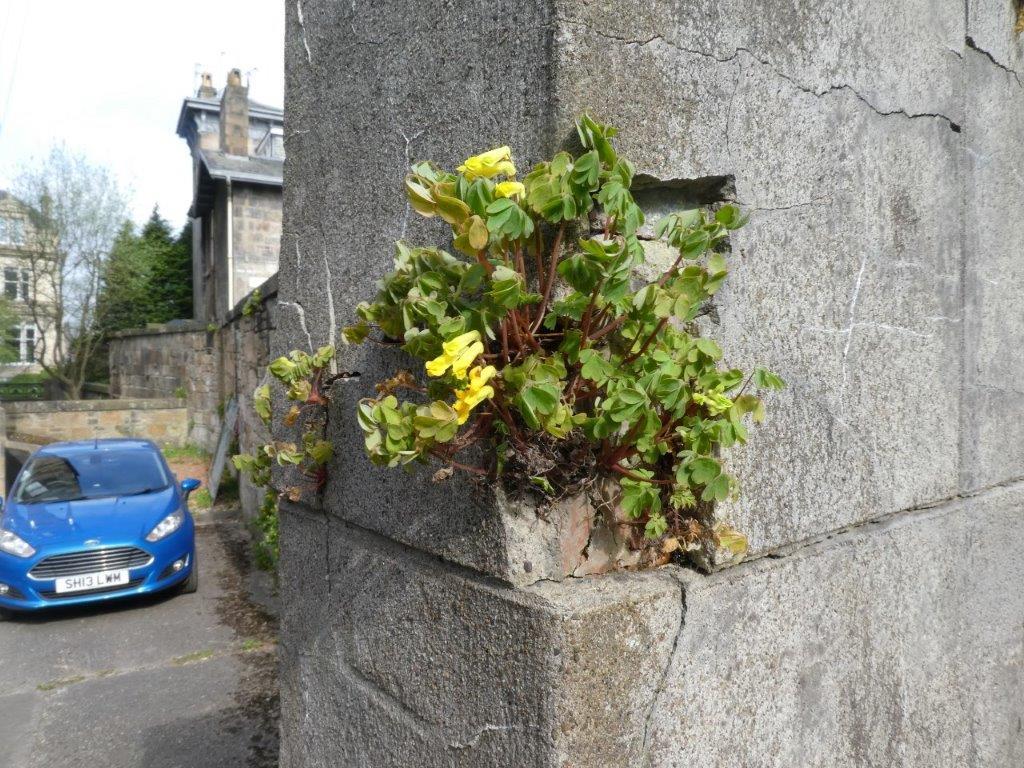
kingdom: Plantae
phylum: Tracheophyta
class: Magnoliopsida
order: Ranunculales
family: Papaveraceae
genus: Pseudofumaria
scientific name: Pseudofumaria lutea
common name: Yellow corydalis
